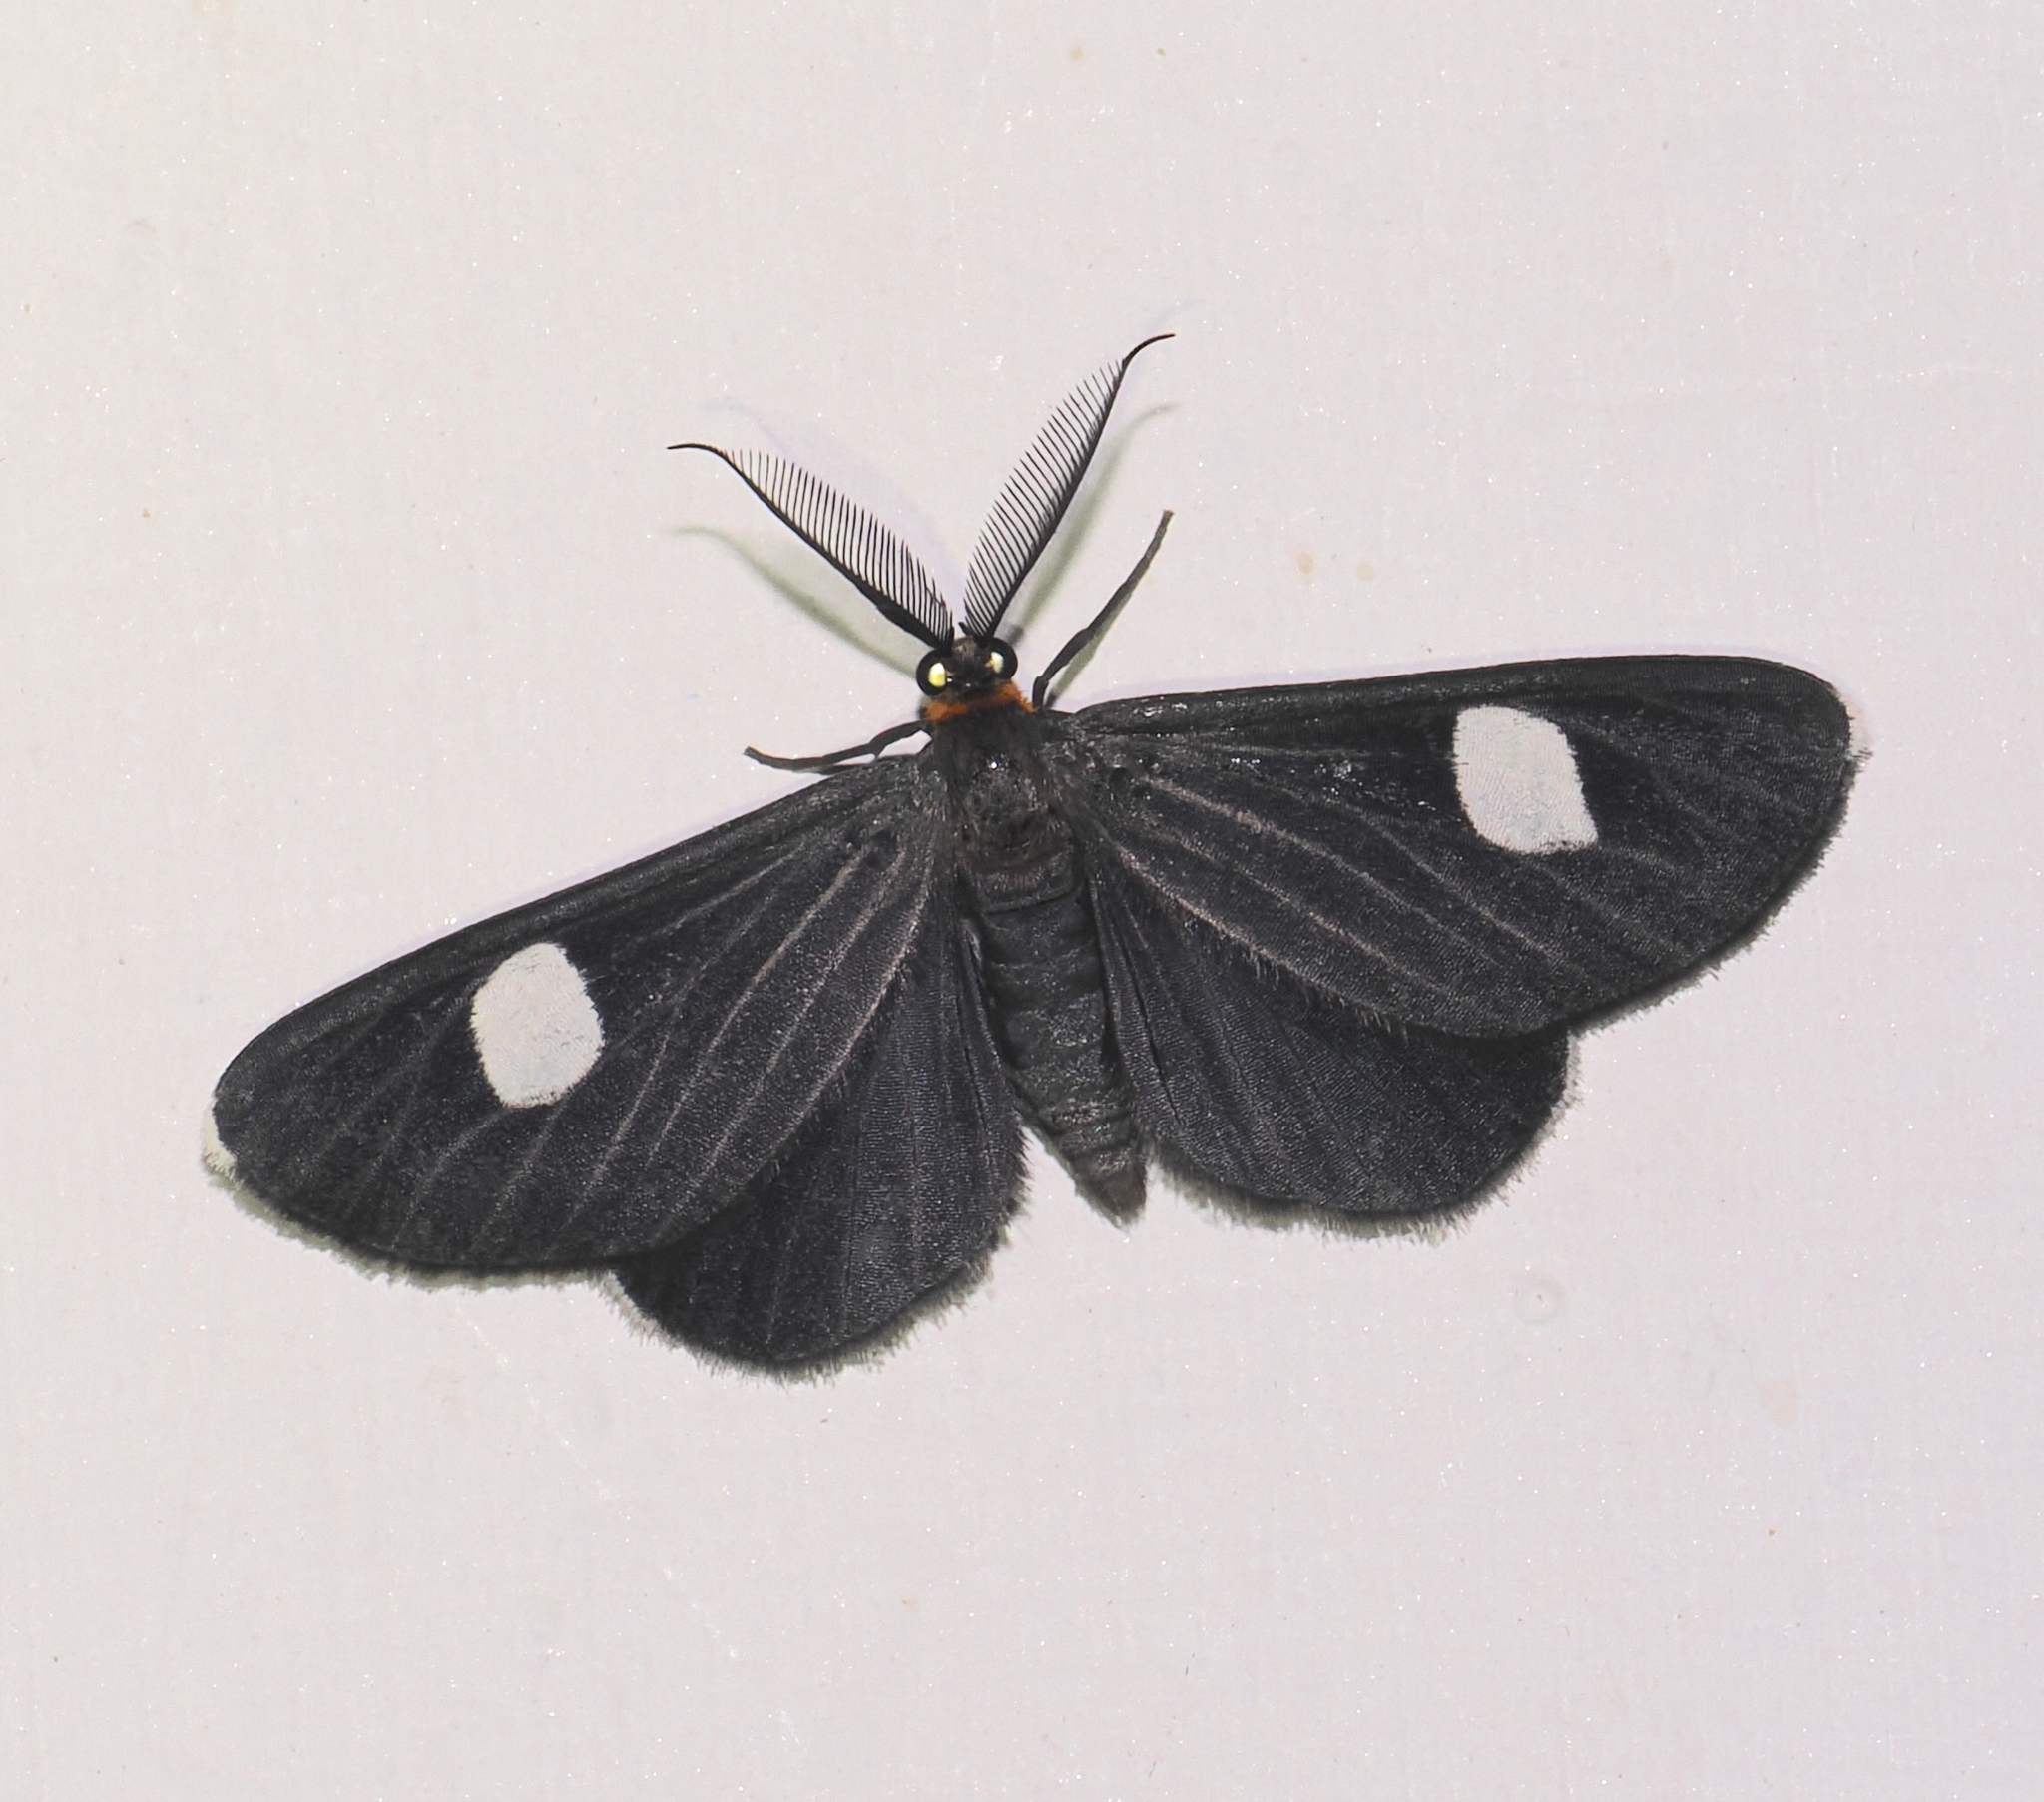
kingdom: Animalia
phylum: Arthropoda
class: Insecta
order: Lepidoptera
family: Geometridae
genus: Melanchroia
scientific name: Melanchroia aterea
